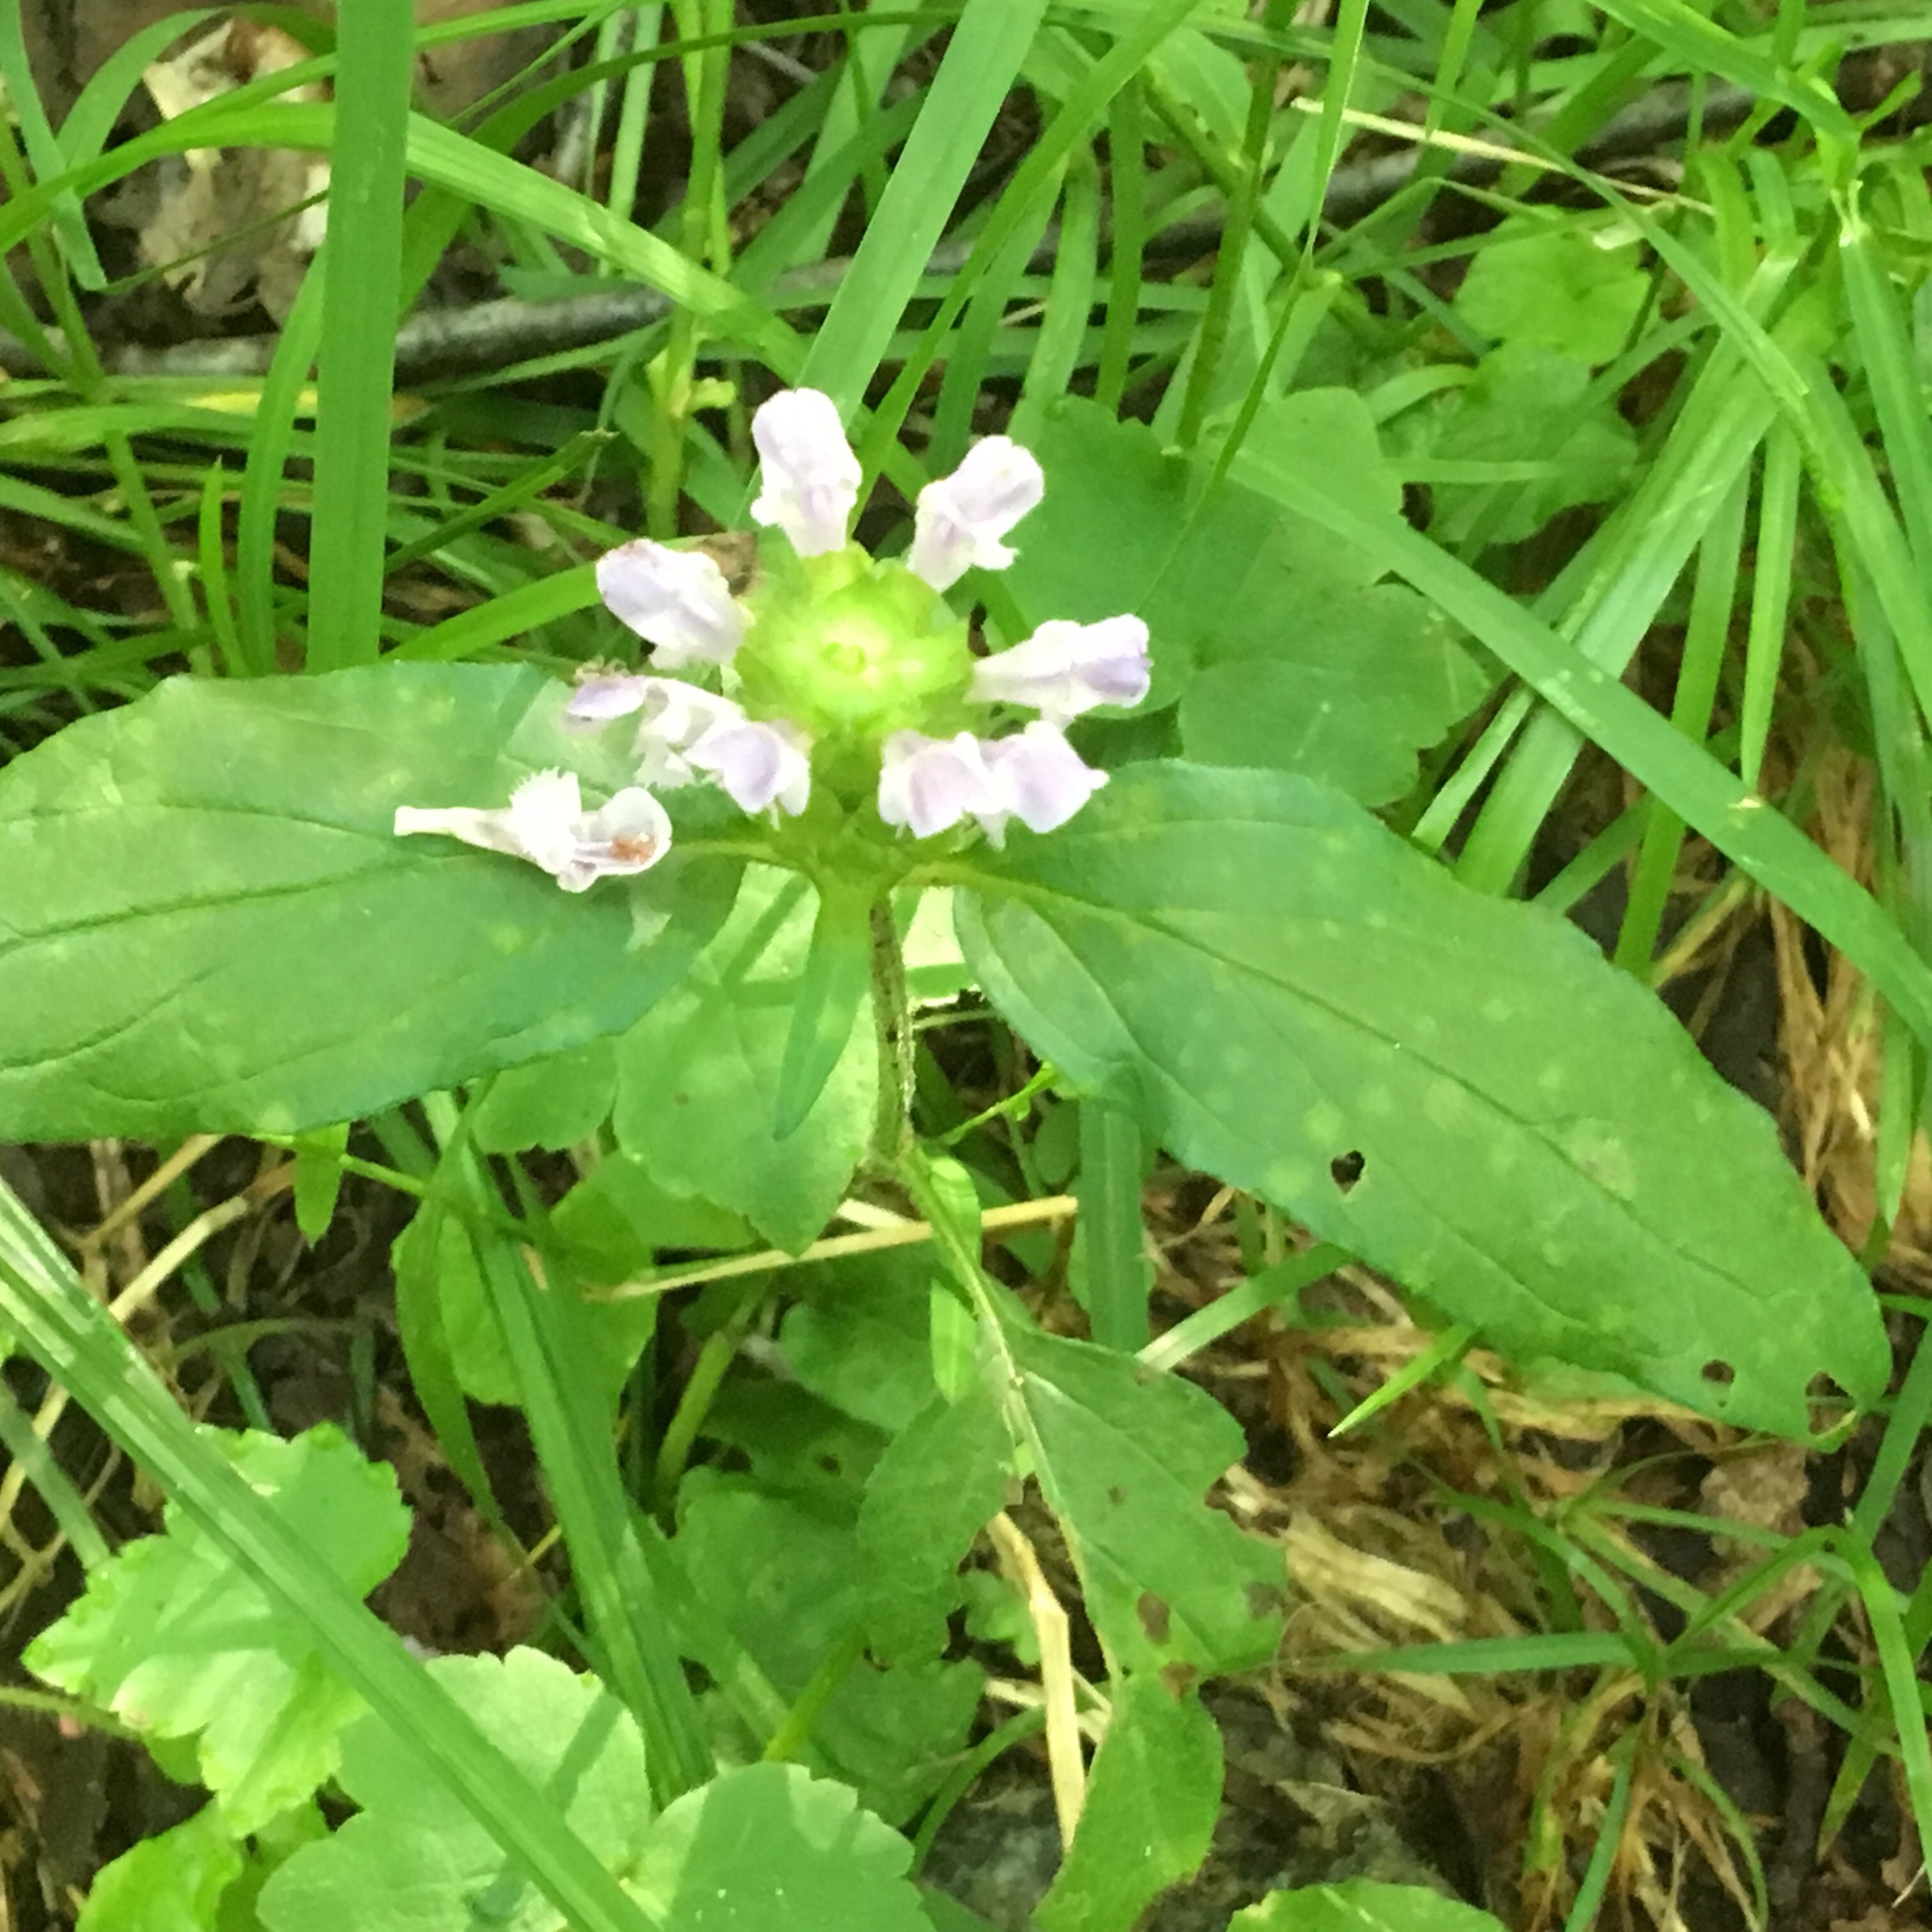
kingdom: Plantae
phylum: Tracheophyta
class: Magnoliopsida
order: Lamiales
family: Lamiaceae
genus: Prunella
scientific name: Prunella vulgaris
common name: Heal-all
